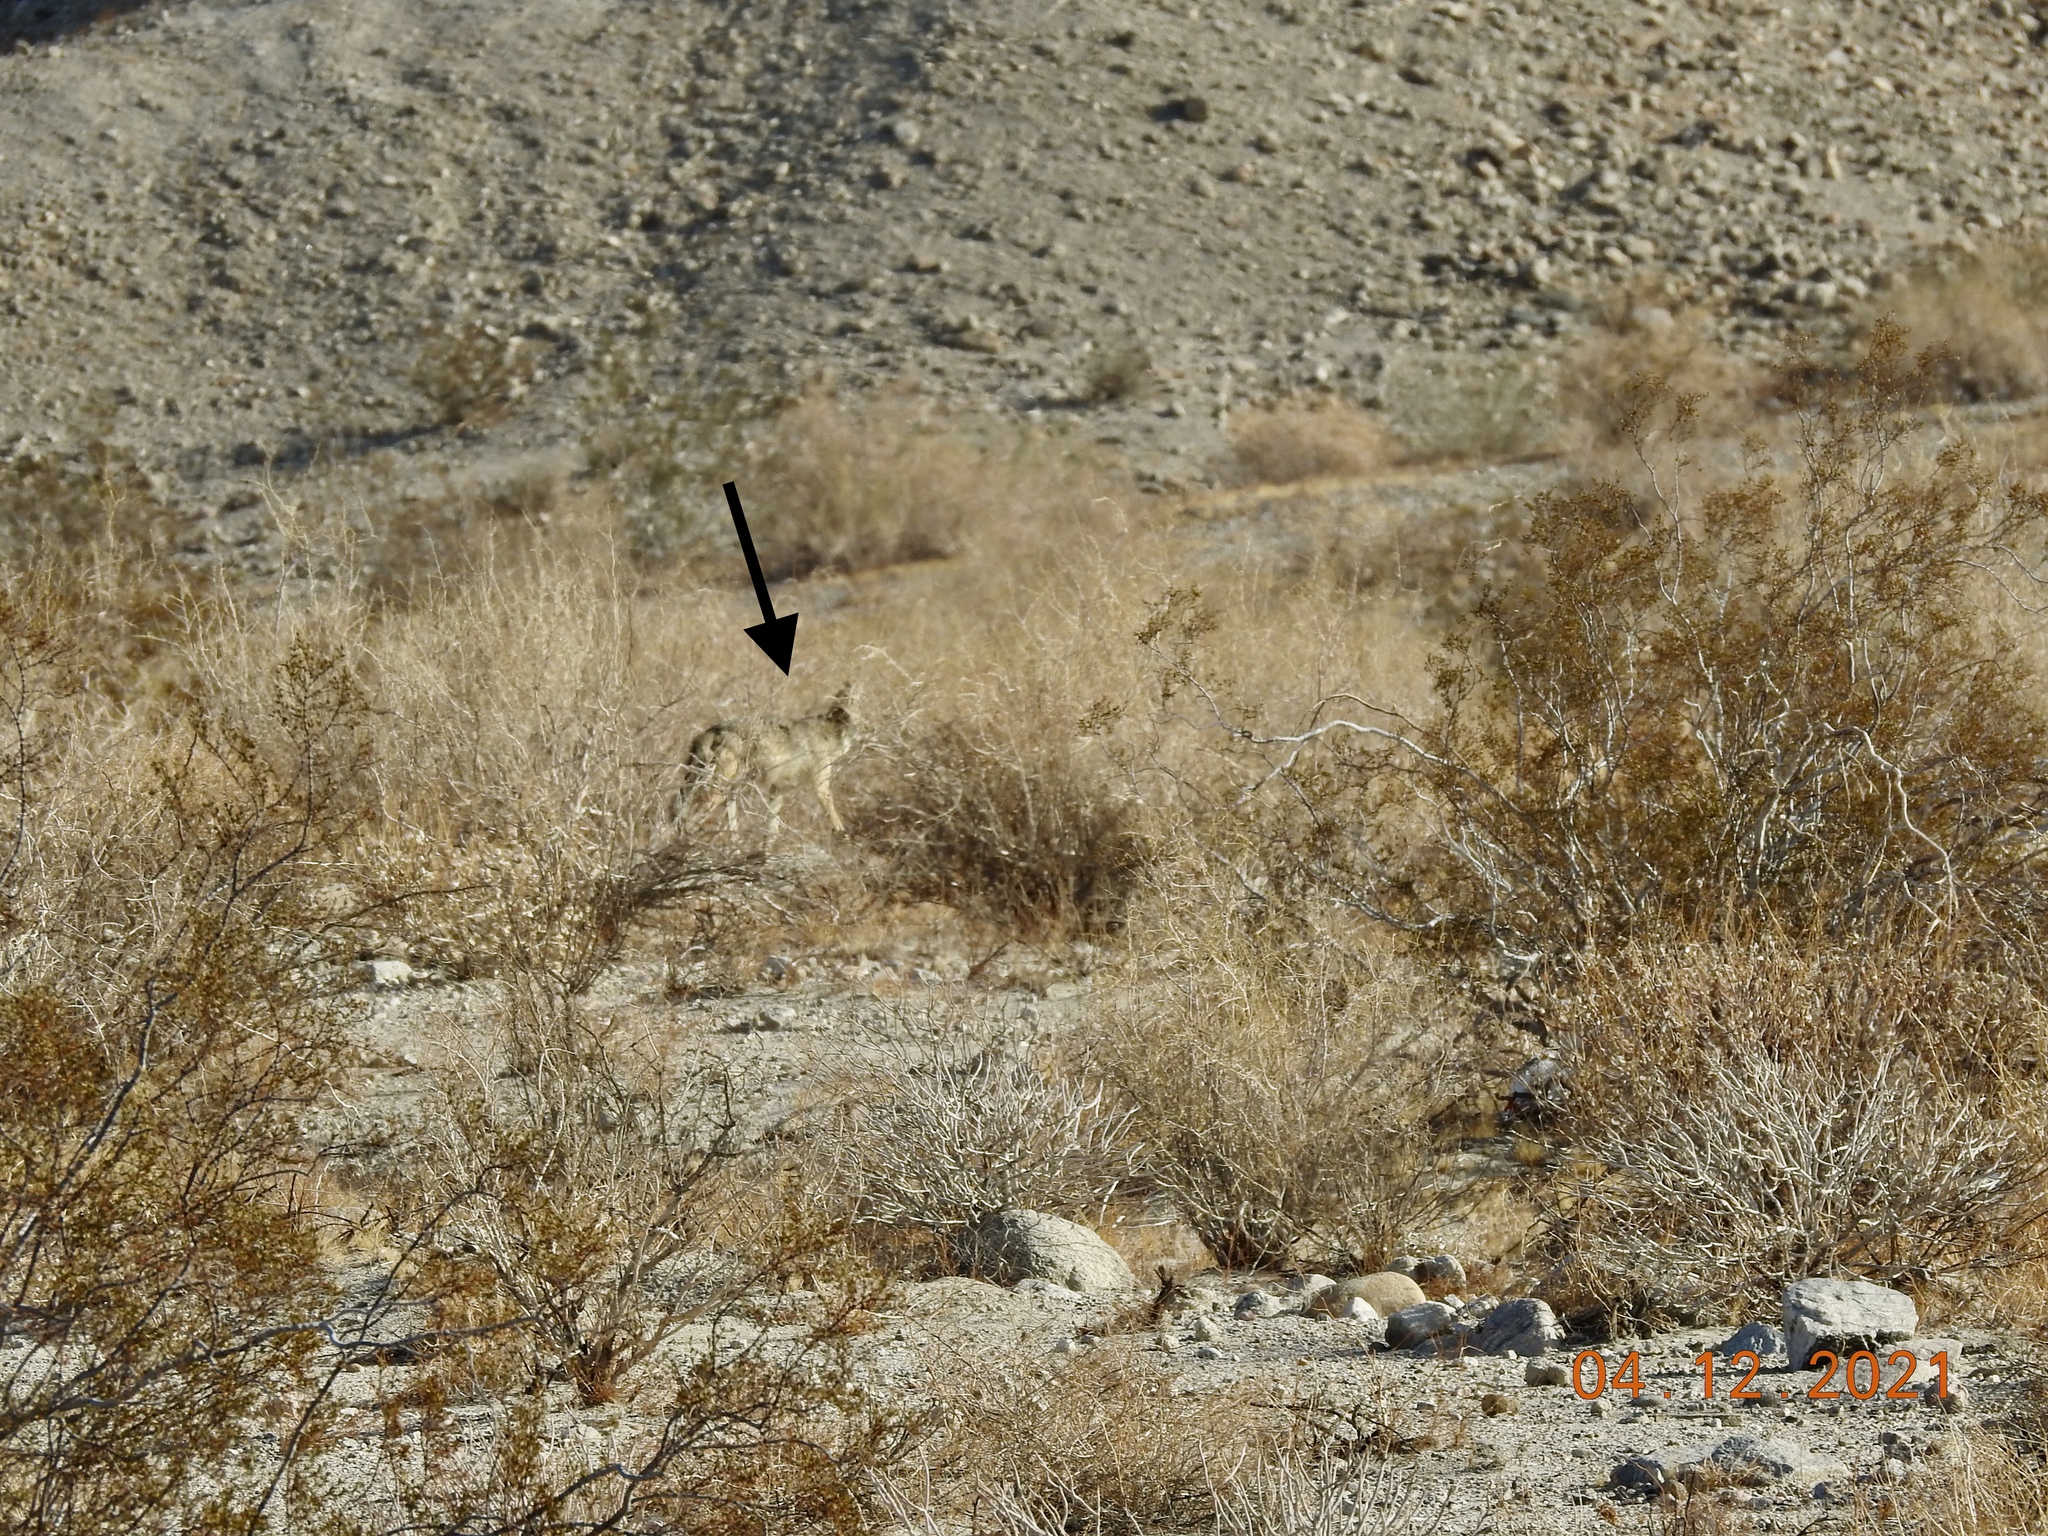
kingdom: Animalia
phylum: Chordata
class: Mammalia
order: Carnivora
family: Canidae
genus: Canis
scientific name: Canis latrans
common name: Coyote
